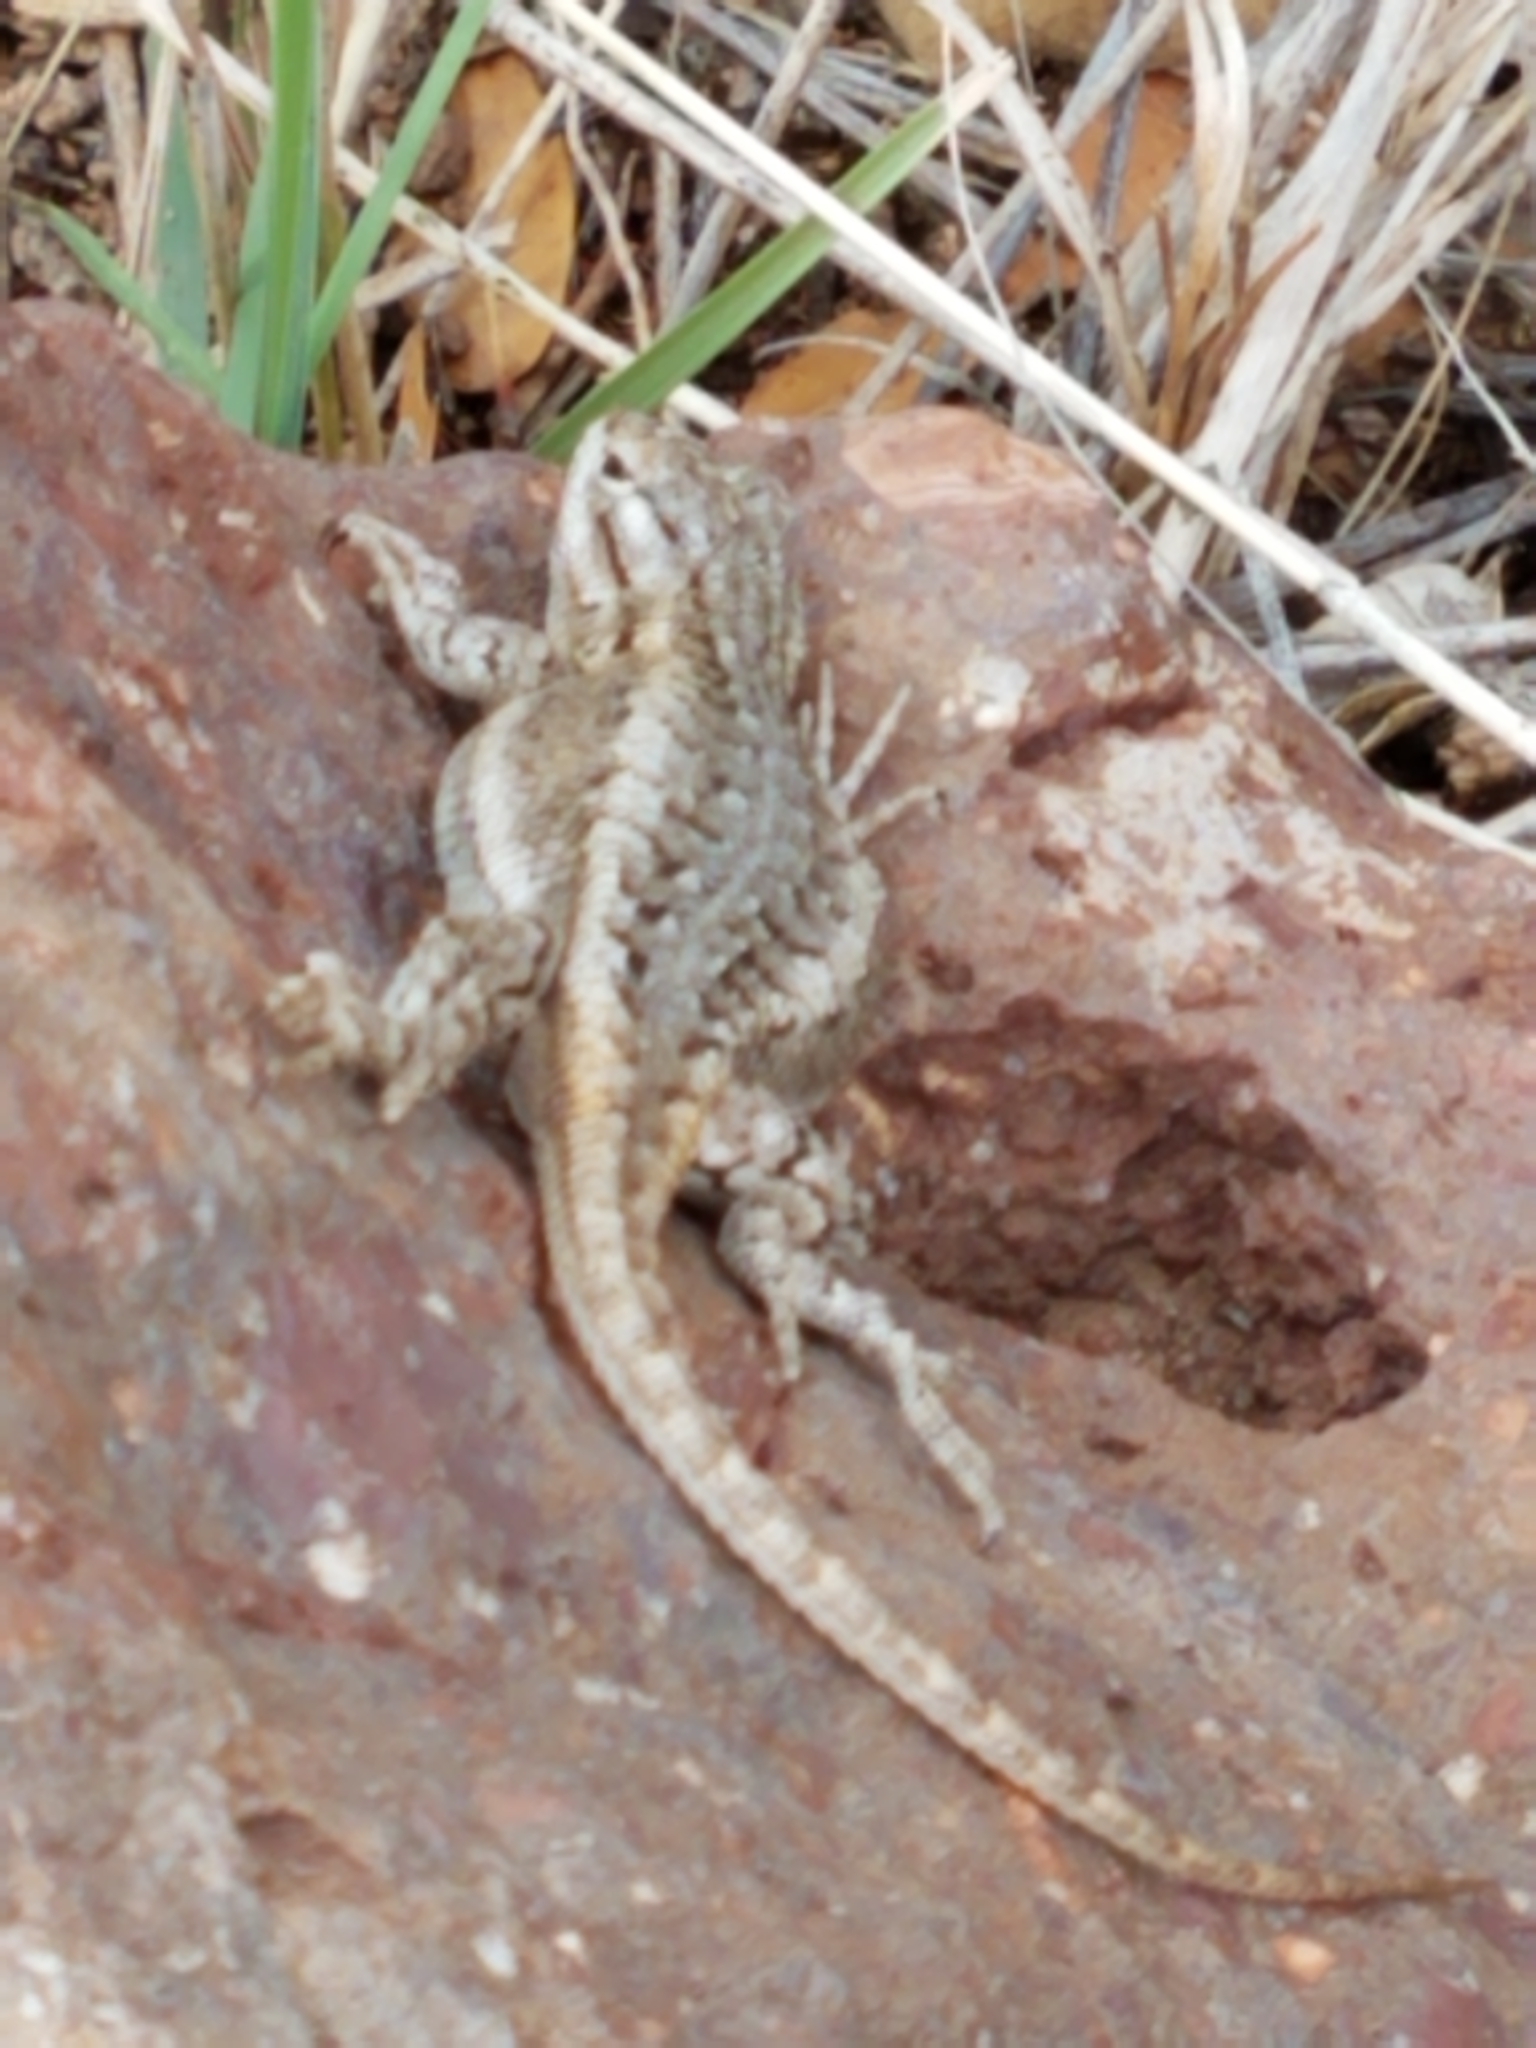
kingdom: Animalia
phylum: Chordata
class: Squamata
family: Phrynosomatidae
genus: Sceloporus
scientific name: Sceloporus cowlesi
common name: White sands prairie lizard
